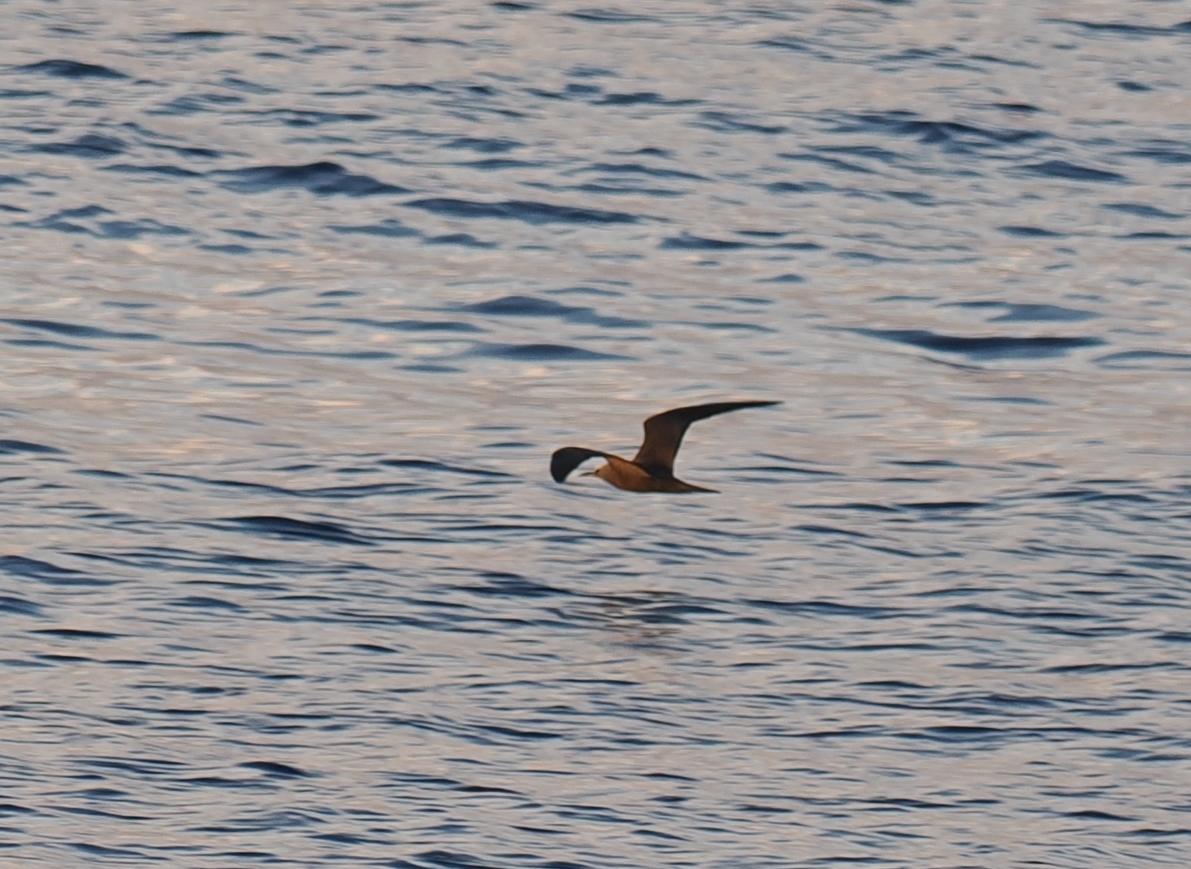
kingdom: Animalia
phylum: Chordata
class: Aves
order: Suliformes
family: Sulidae
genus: Sula
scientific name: Sula sula
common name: Red-footed booby
